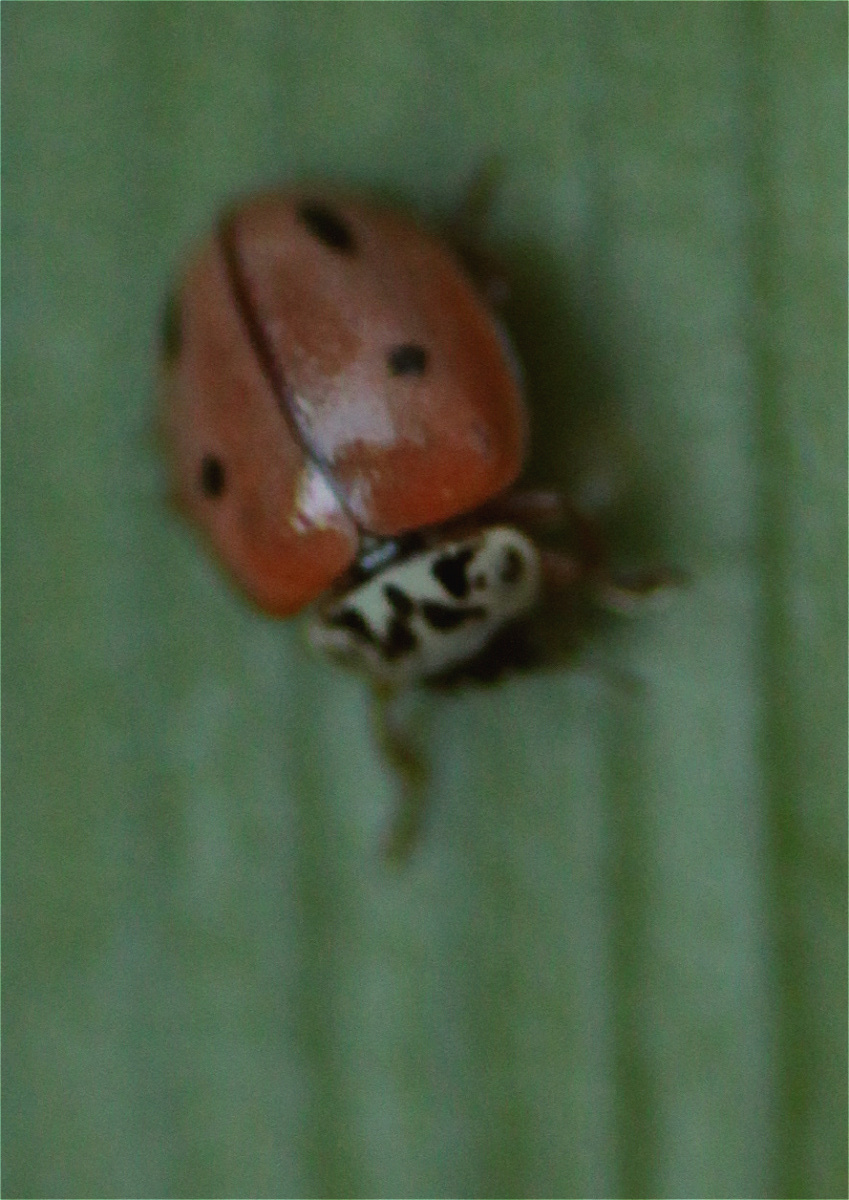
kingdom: Animalia
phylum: Arthropoda
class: Insecta
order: Coleoptera
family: Coccinellidae
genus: Mulsantina
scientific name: Mulsantina
